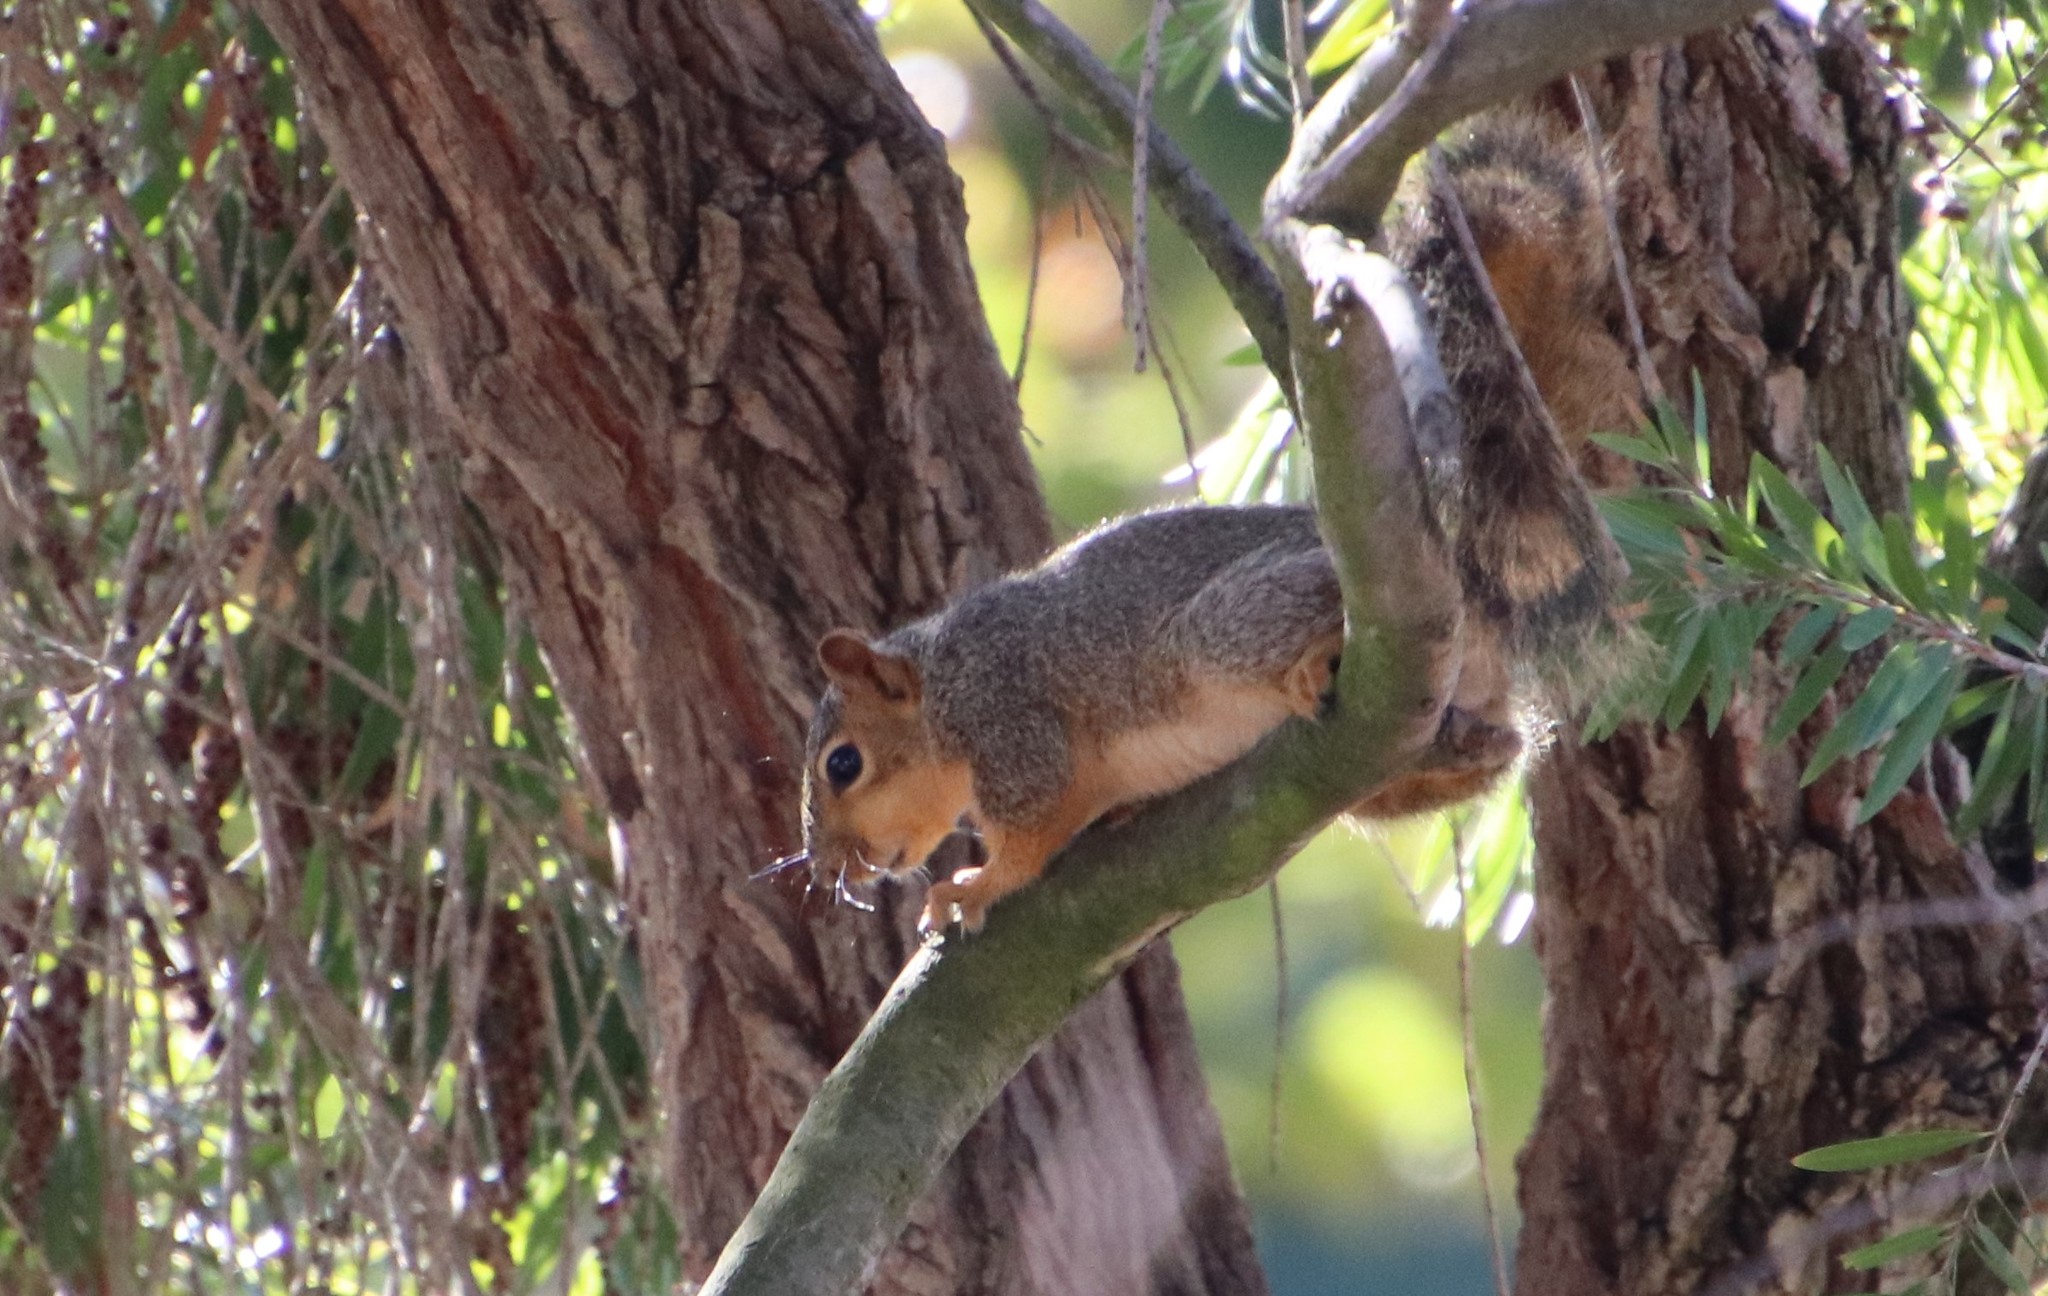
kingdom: Animalia
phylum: Chordata
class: Mammalia
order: Rodentia
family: Sciuridae
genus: Sciurus
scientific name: Sciurus niger
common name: Fox squirrel
